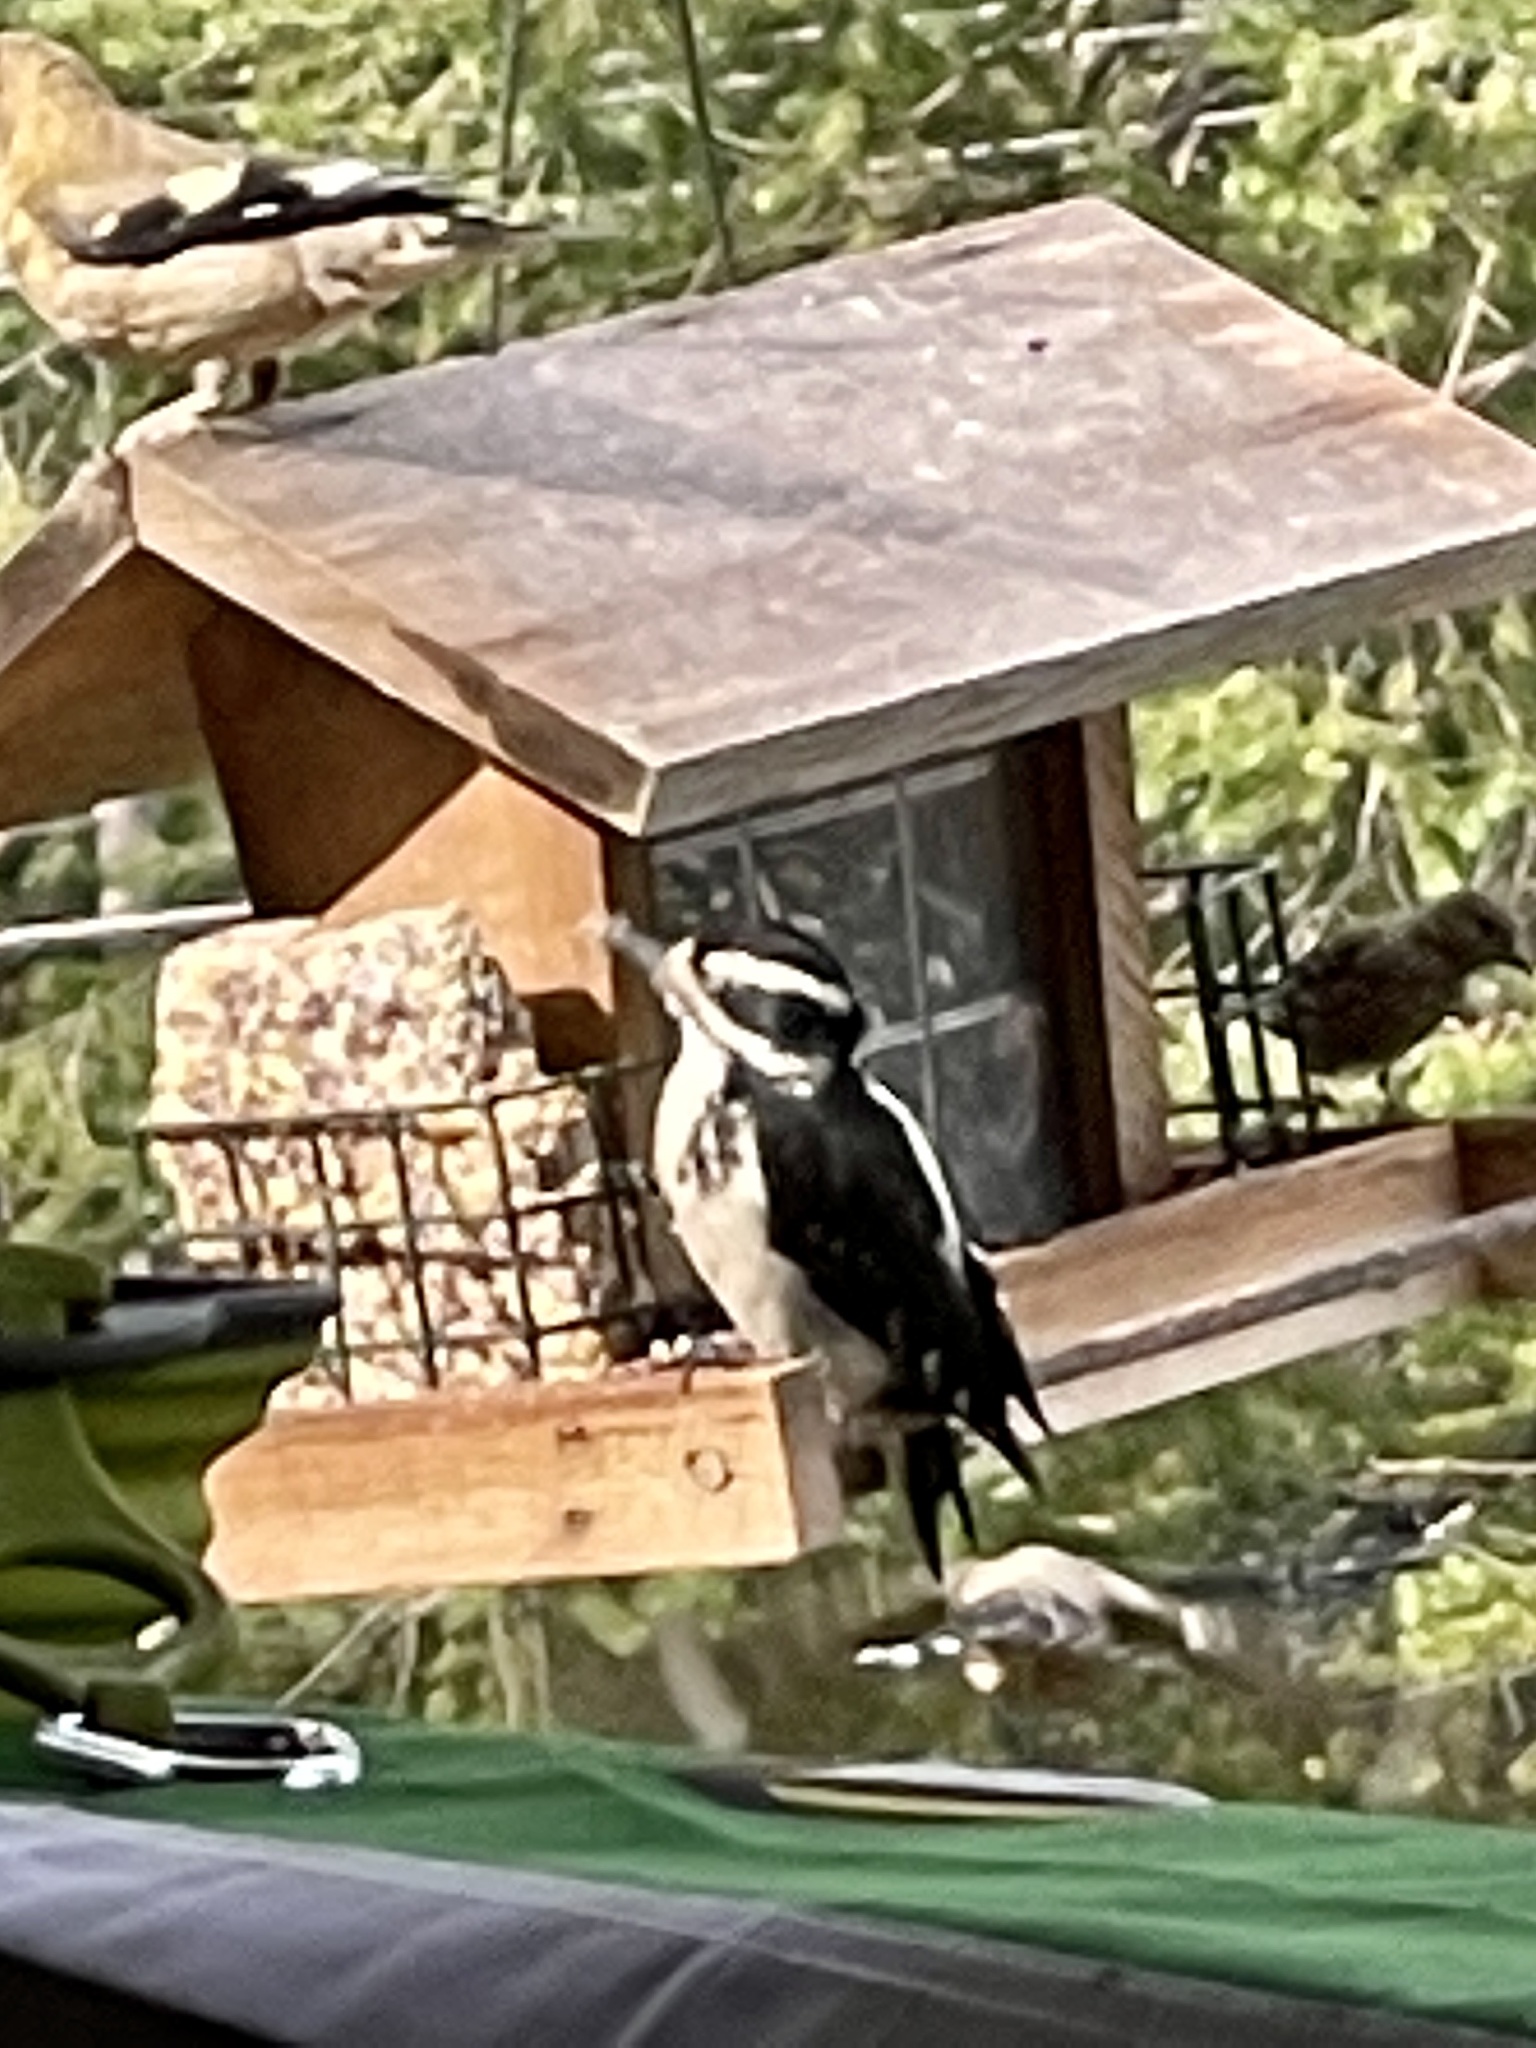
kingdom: Animalia
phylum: Chordata
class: Aves
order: Piciformes
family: Picidae
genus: Leuconotopicus
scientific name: Leuconotopicus villosus
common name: Hairy woodpecker
